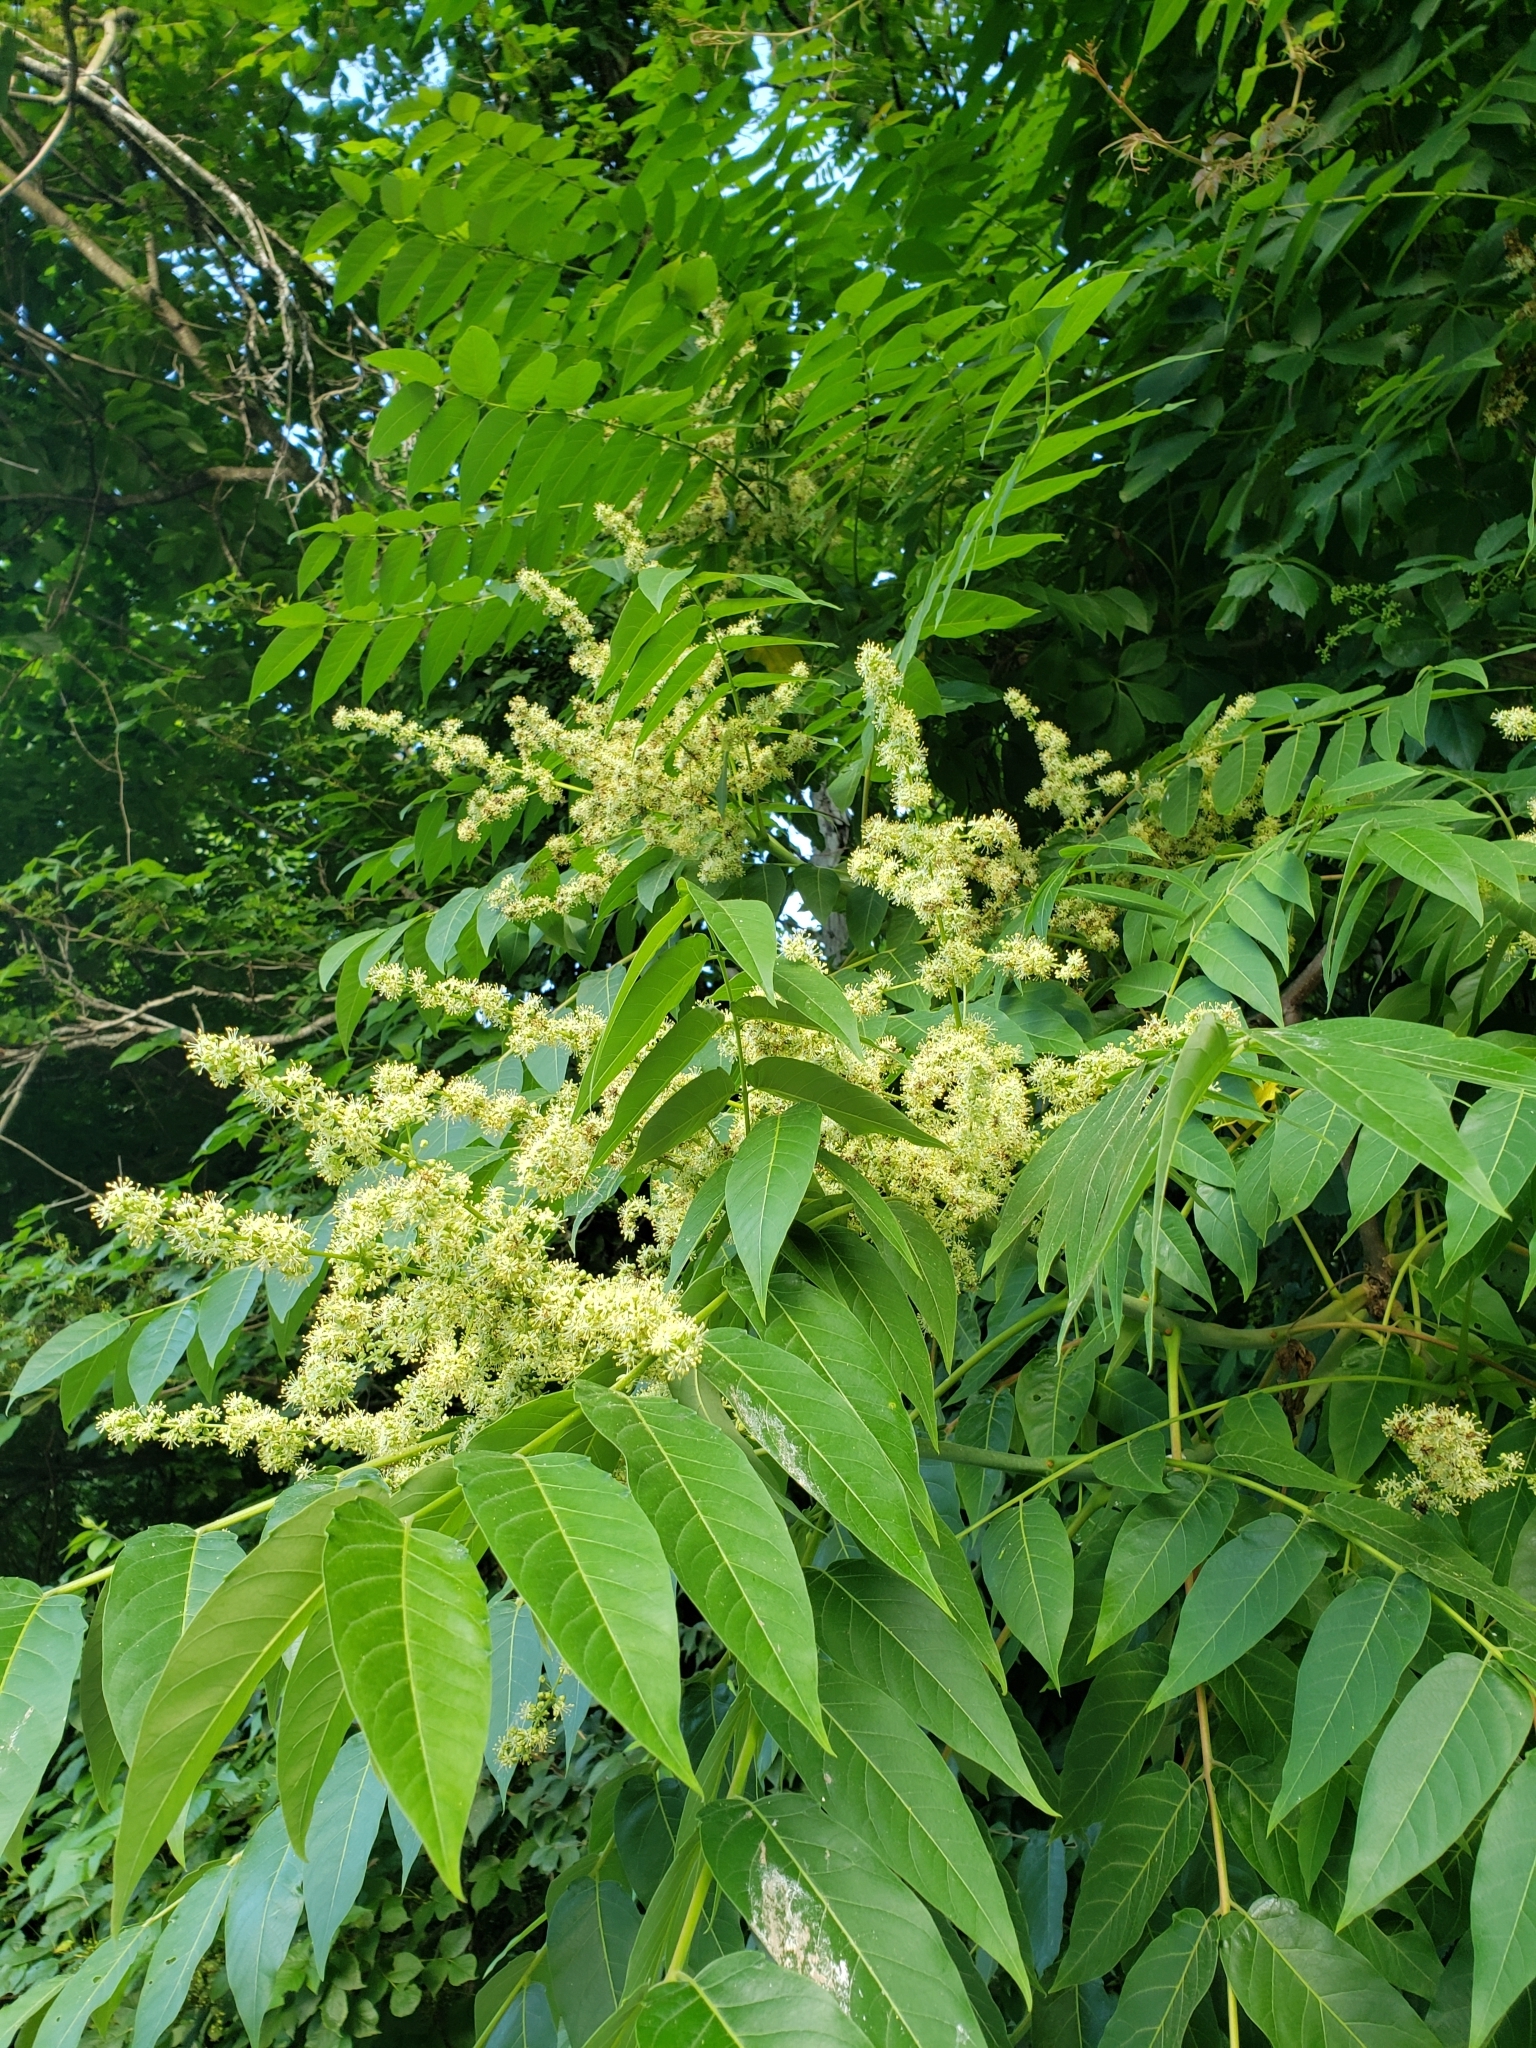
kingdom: Plantae
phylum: Tracheophyta
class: Magnoliopsida
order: Sapindales
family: Simaroubaceae
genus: Ailanthus
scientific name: Ailanthus altissima
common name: Tree-of-heaven
